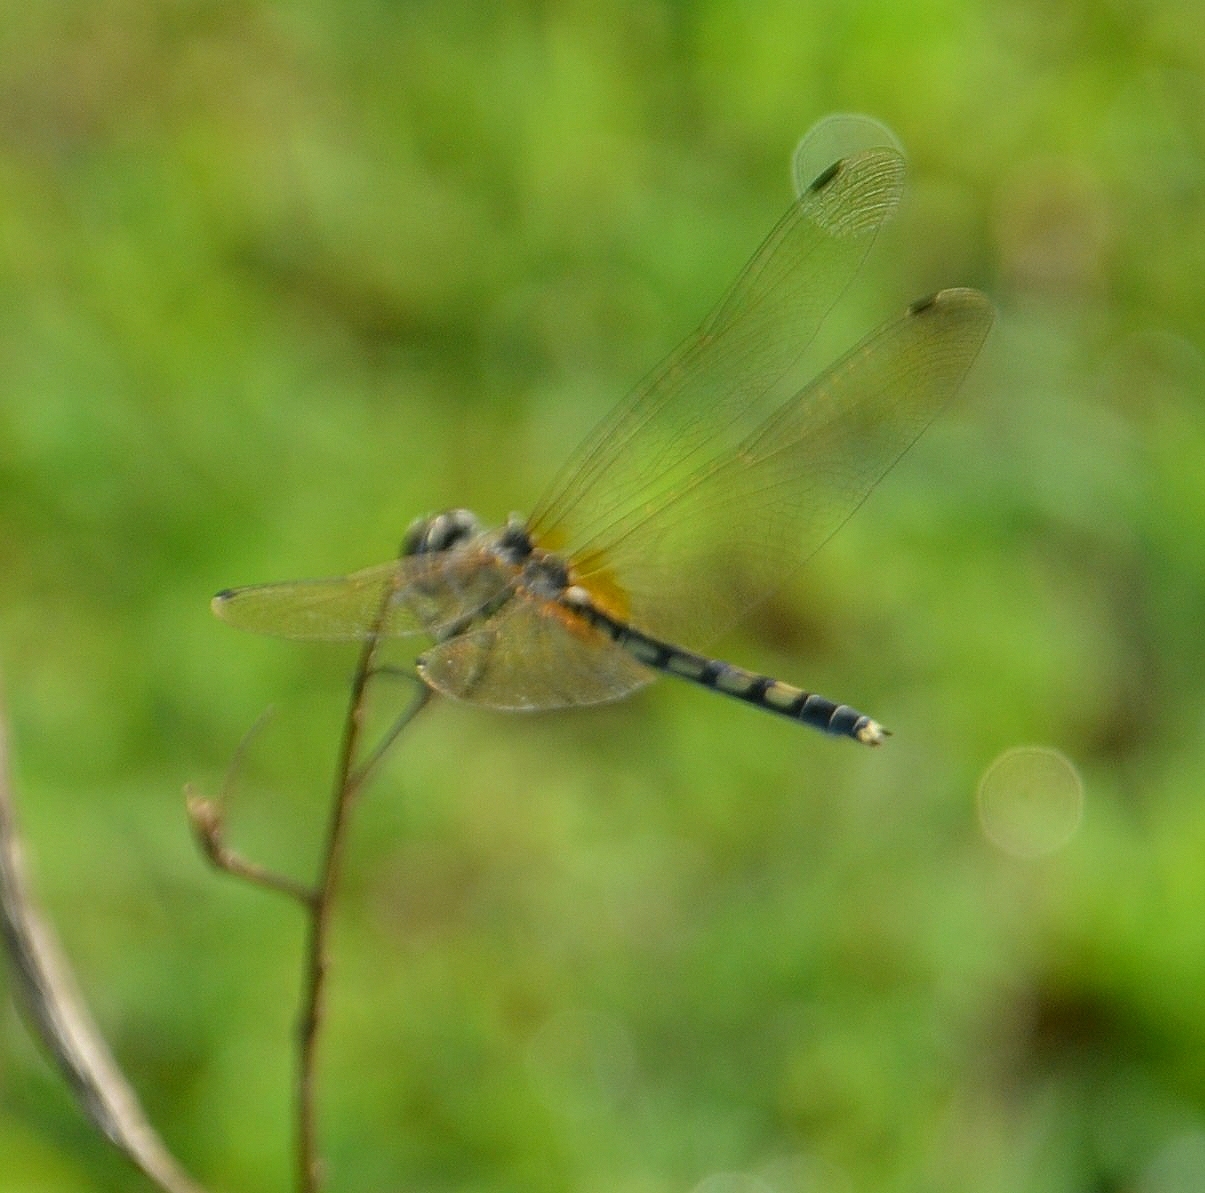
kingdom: Animalia
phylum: Arthropoda
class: Insecta
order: Odonata
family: Libellulidae
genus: Trithemis
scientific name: Trithemis pallidinervis
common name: Dancing dropwing
